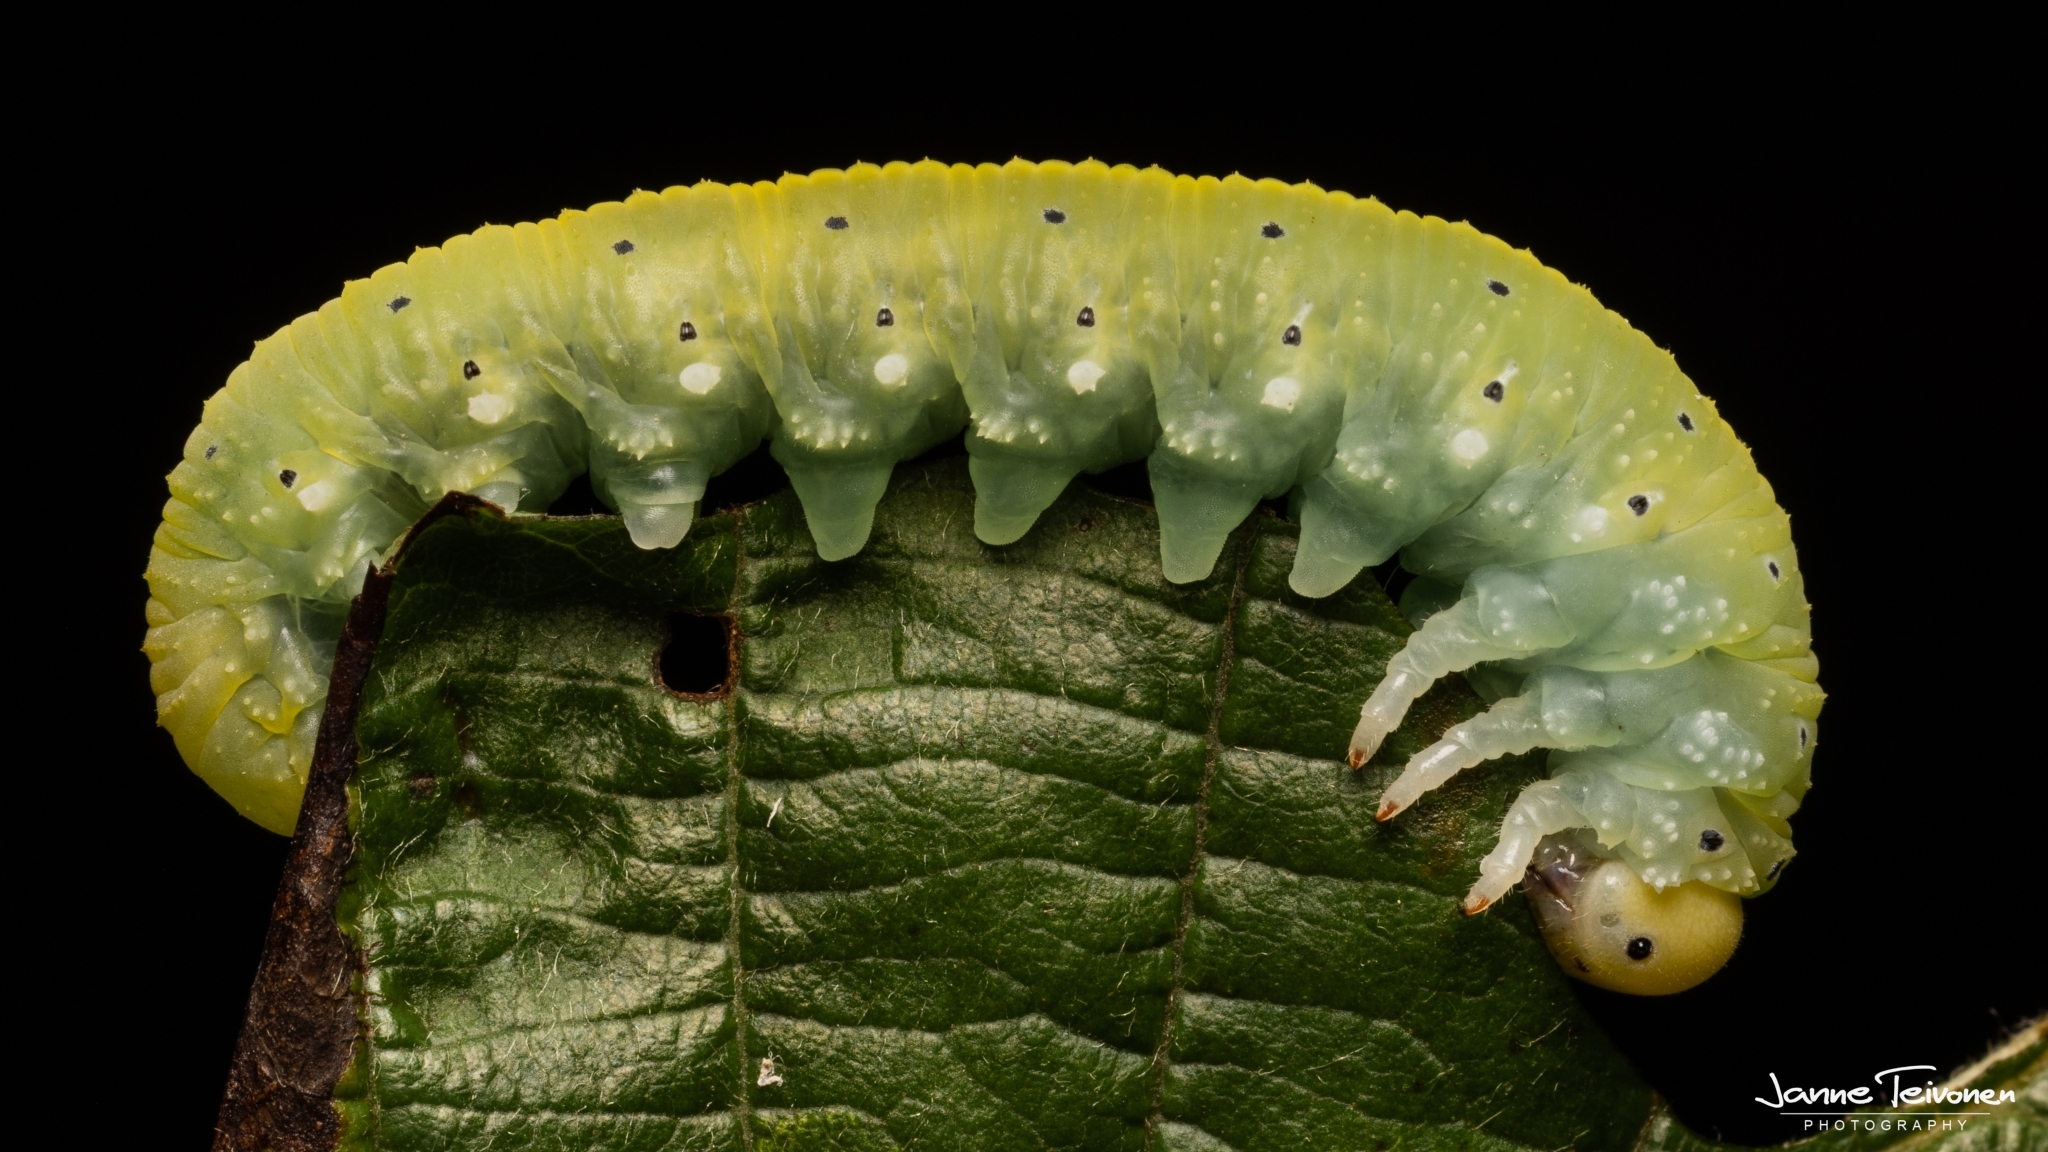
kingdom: Animalia
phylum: Arthropoda
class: Insecta
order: Hymenoptera
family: Cimbicidae
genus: Cimbex
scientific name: Cimbex connatus
